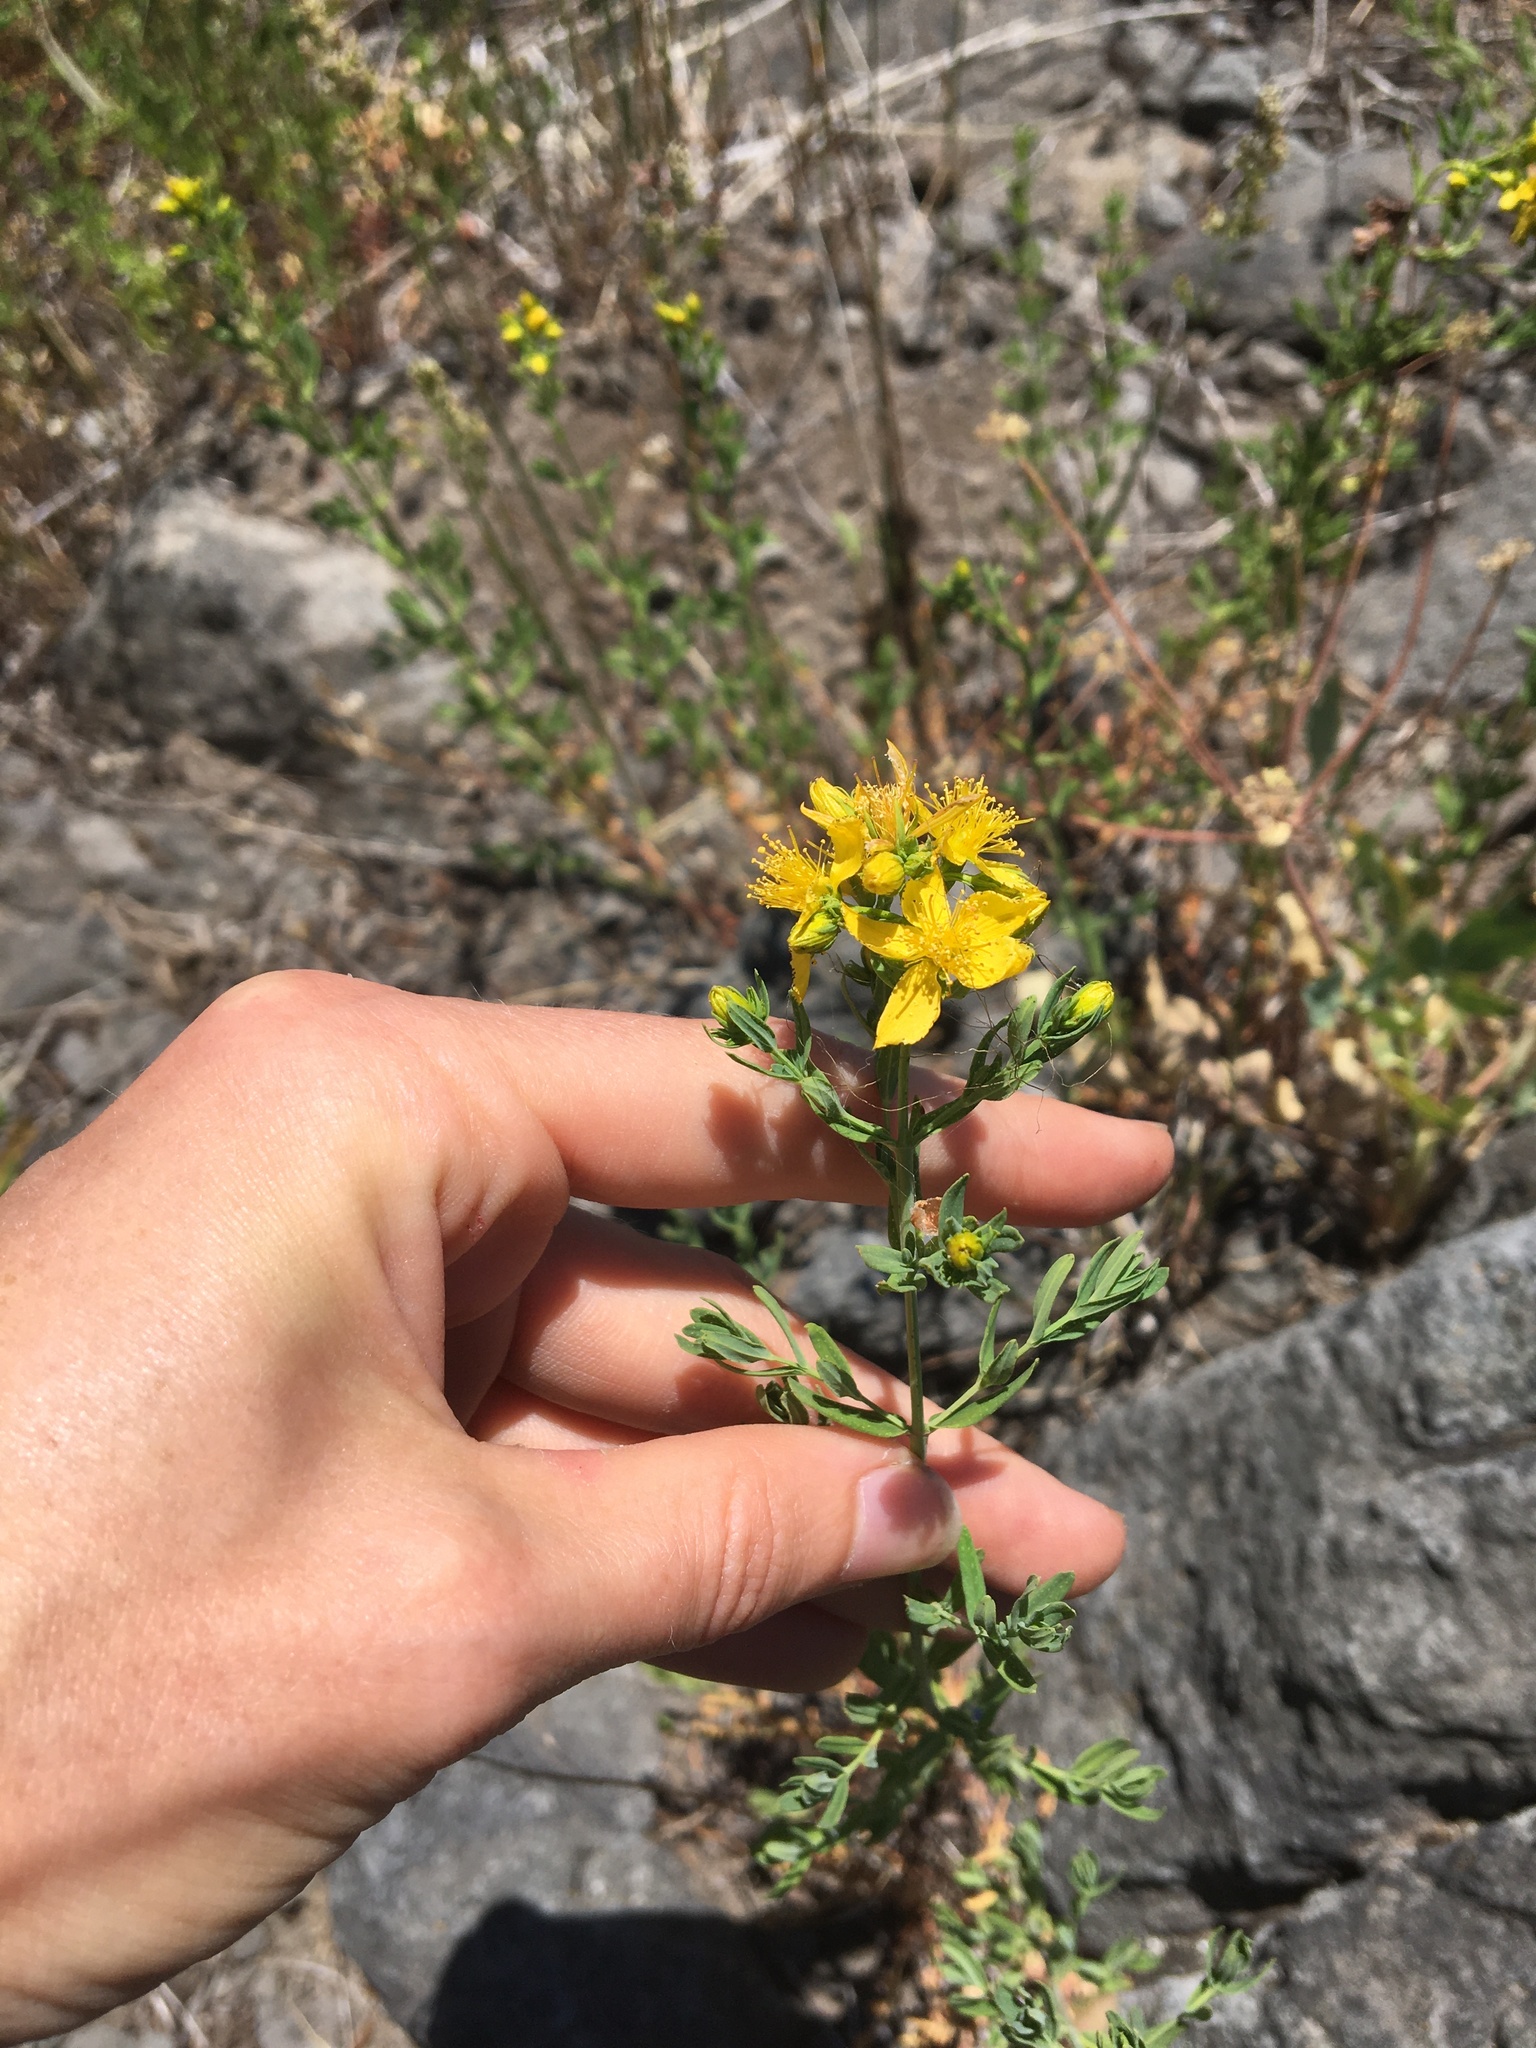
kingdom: Plantae
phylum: Tracheophyta
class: Magnoliopsida
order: Malpighiales
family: Hypericaceae
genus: Hypericum
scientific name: Hypericum perforatum
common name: Common st. johnswort
